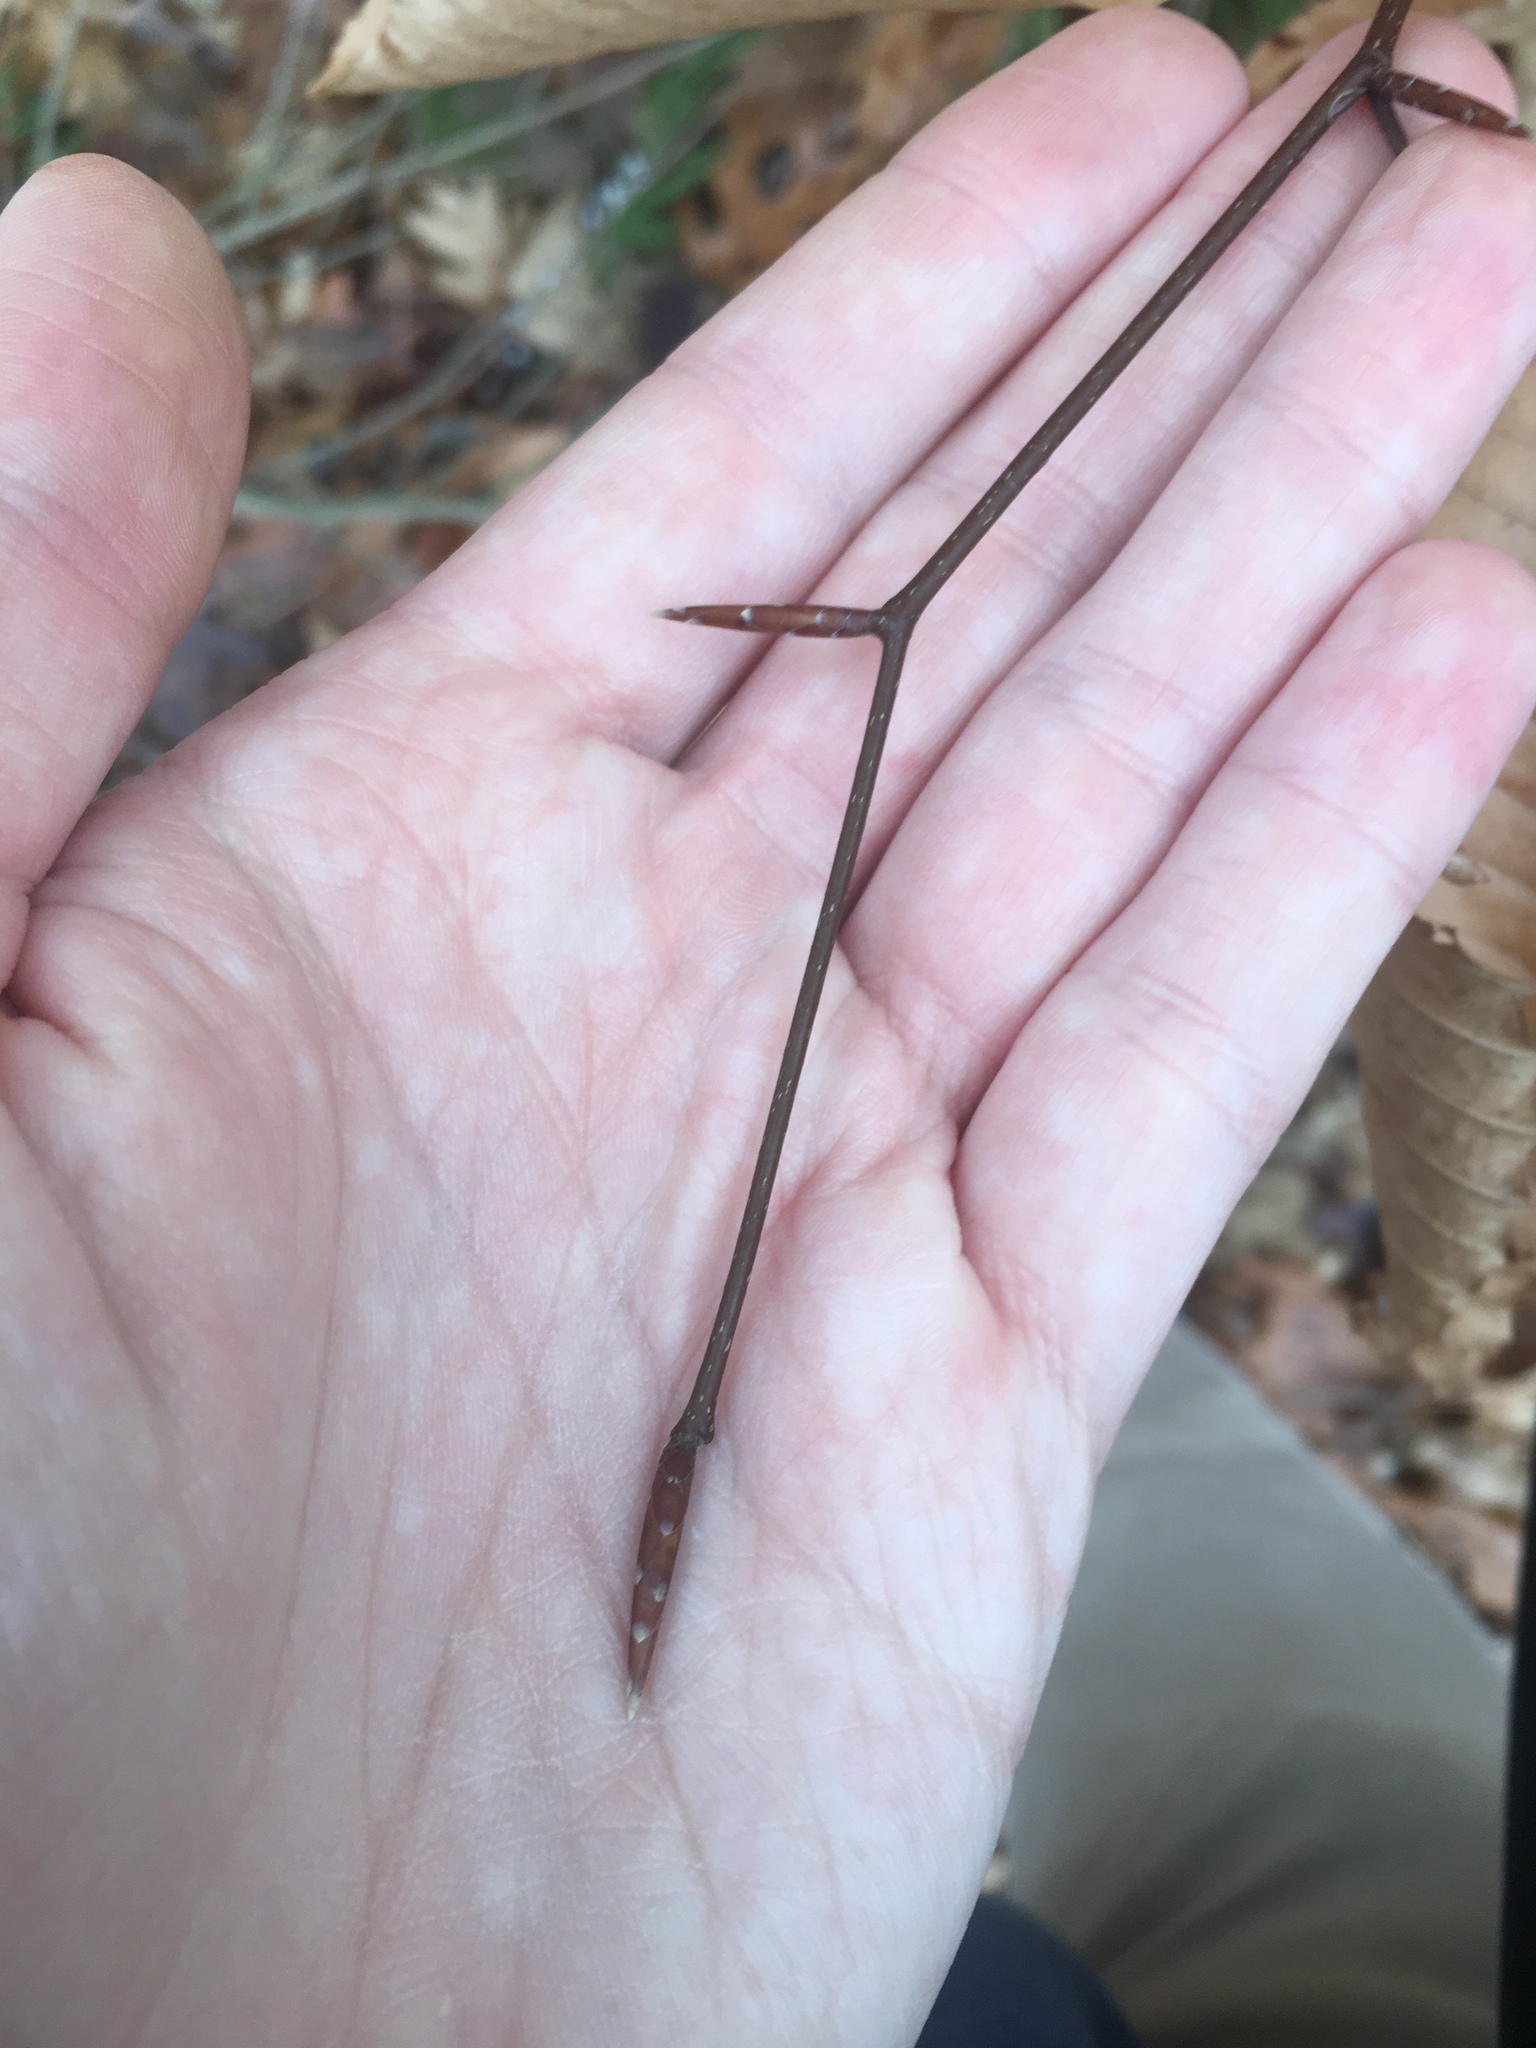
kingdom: Plantae
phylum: Tracheophyta
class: Magnoliopsida
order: Fagales
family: Fagaceae
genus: Fagus
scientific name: Fagus grandifolia
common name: American beech
